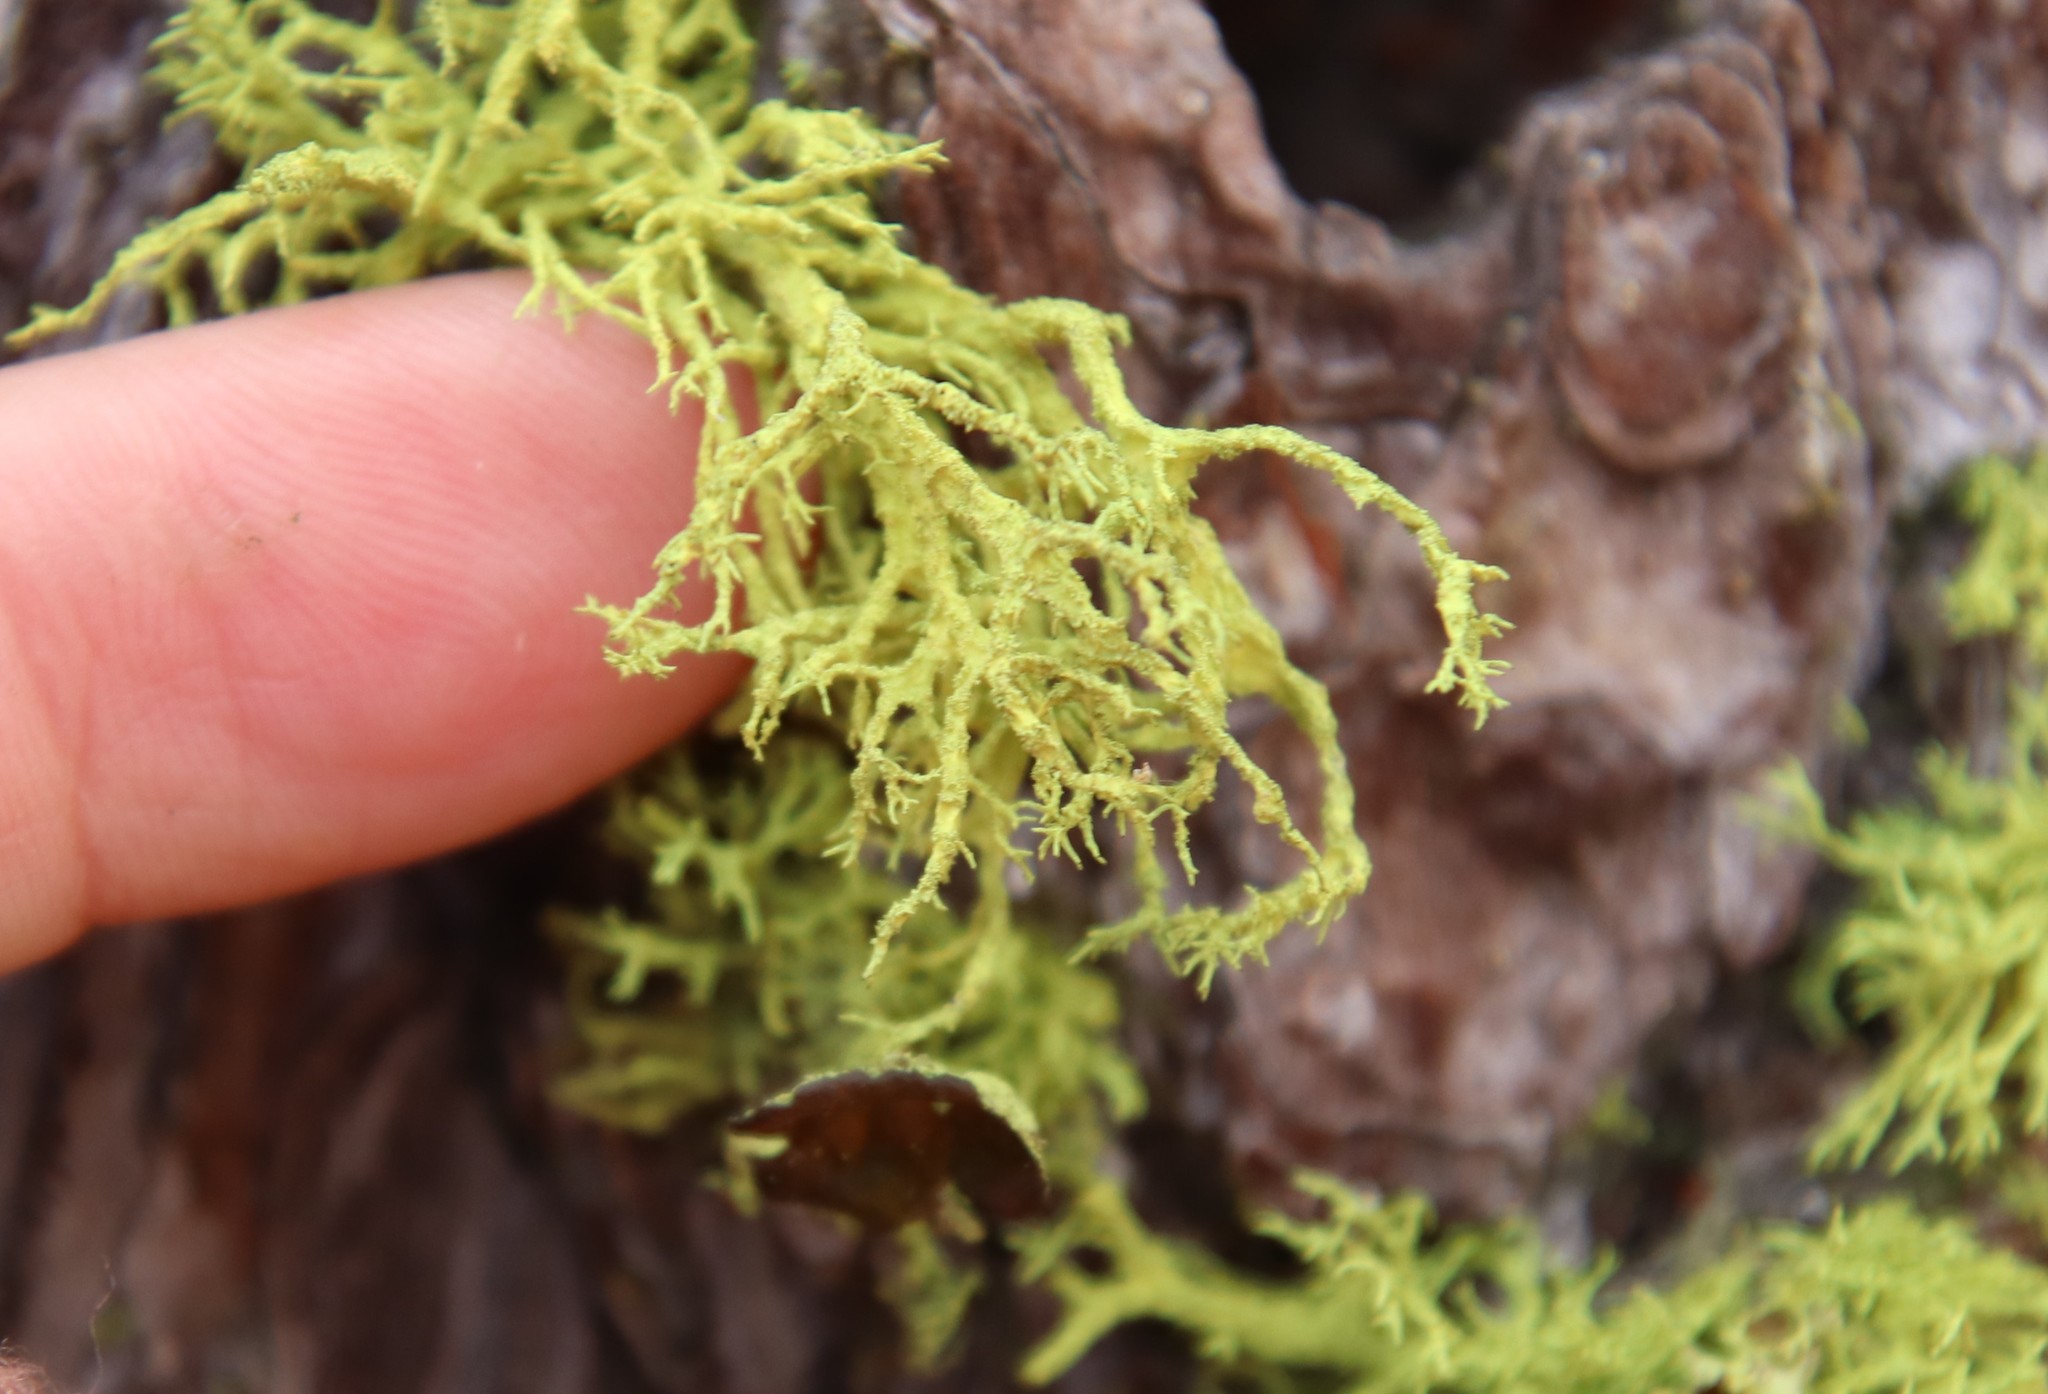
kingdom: Fungi
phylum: Ascomycota
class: Lecanoromycetes
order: Lecanorales
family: Parmeliaceae
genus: Letharia
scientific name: Letharia columbiana
